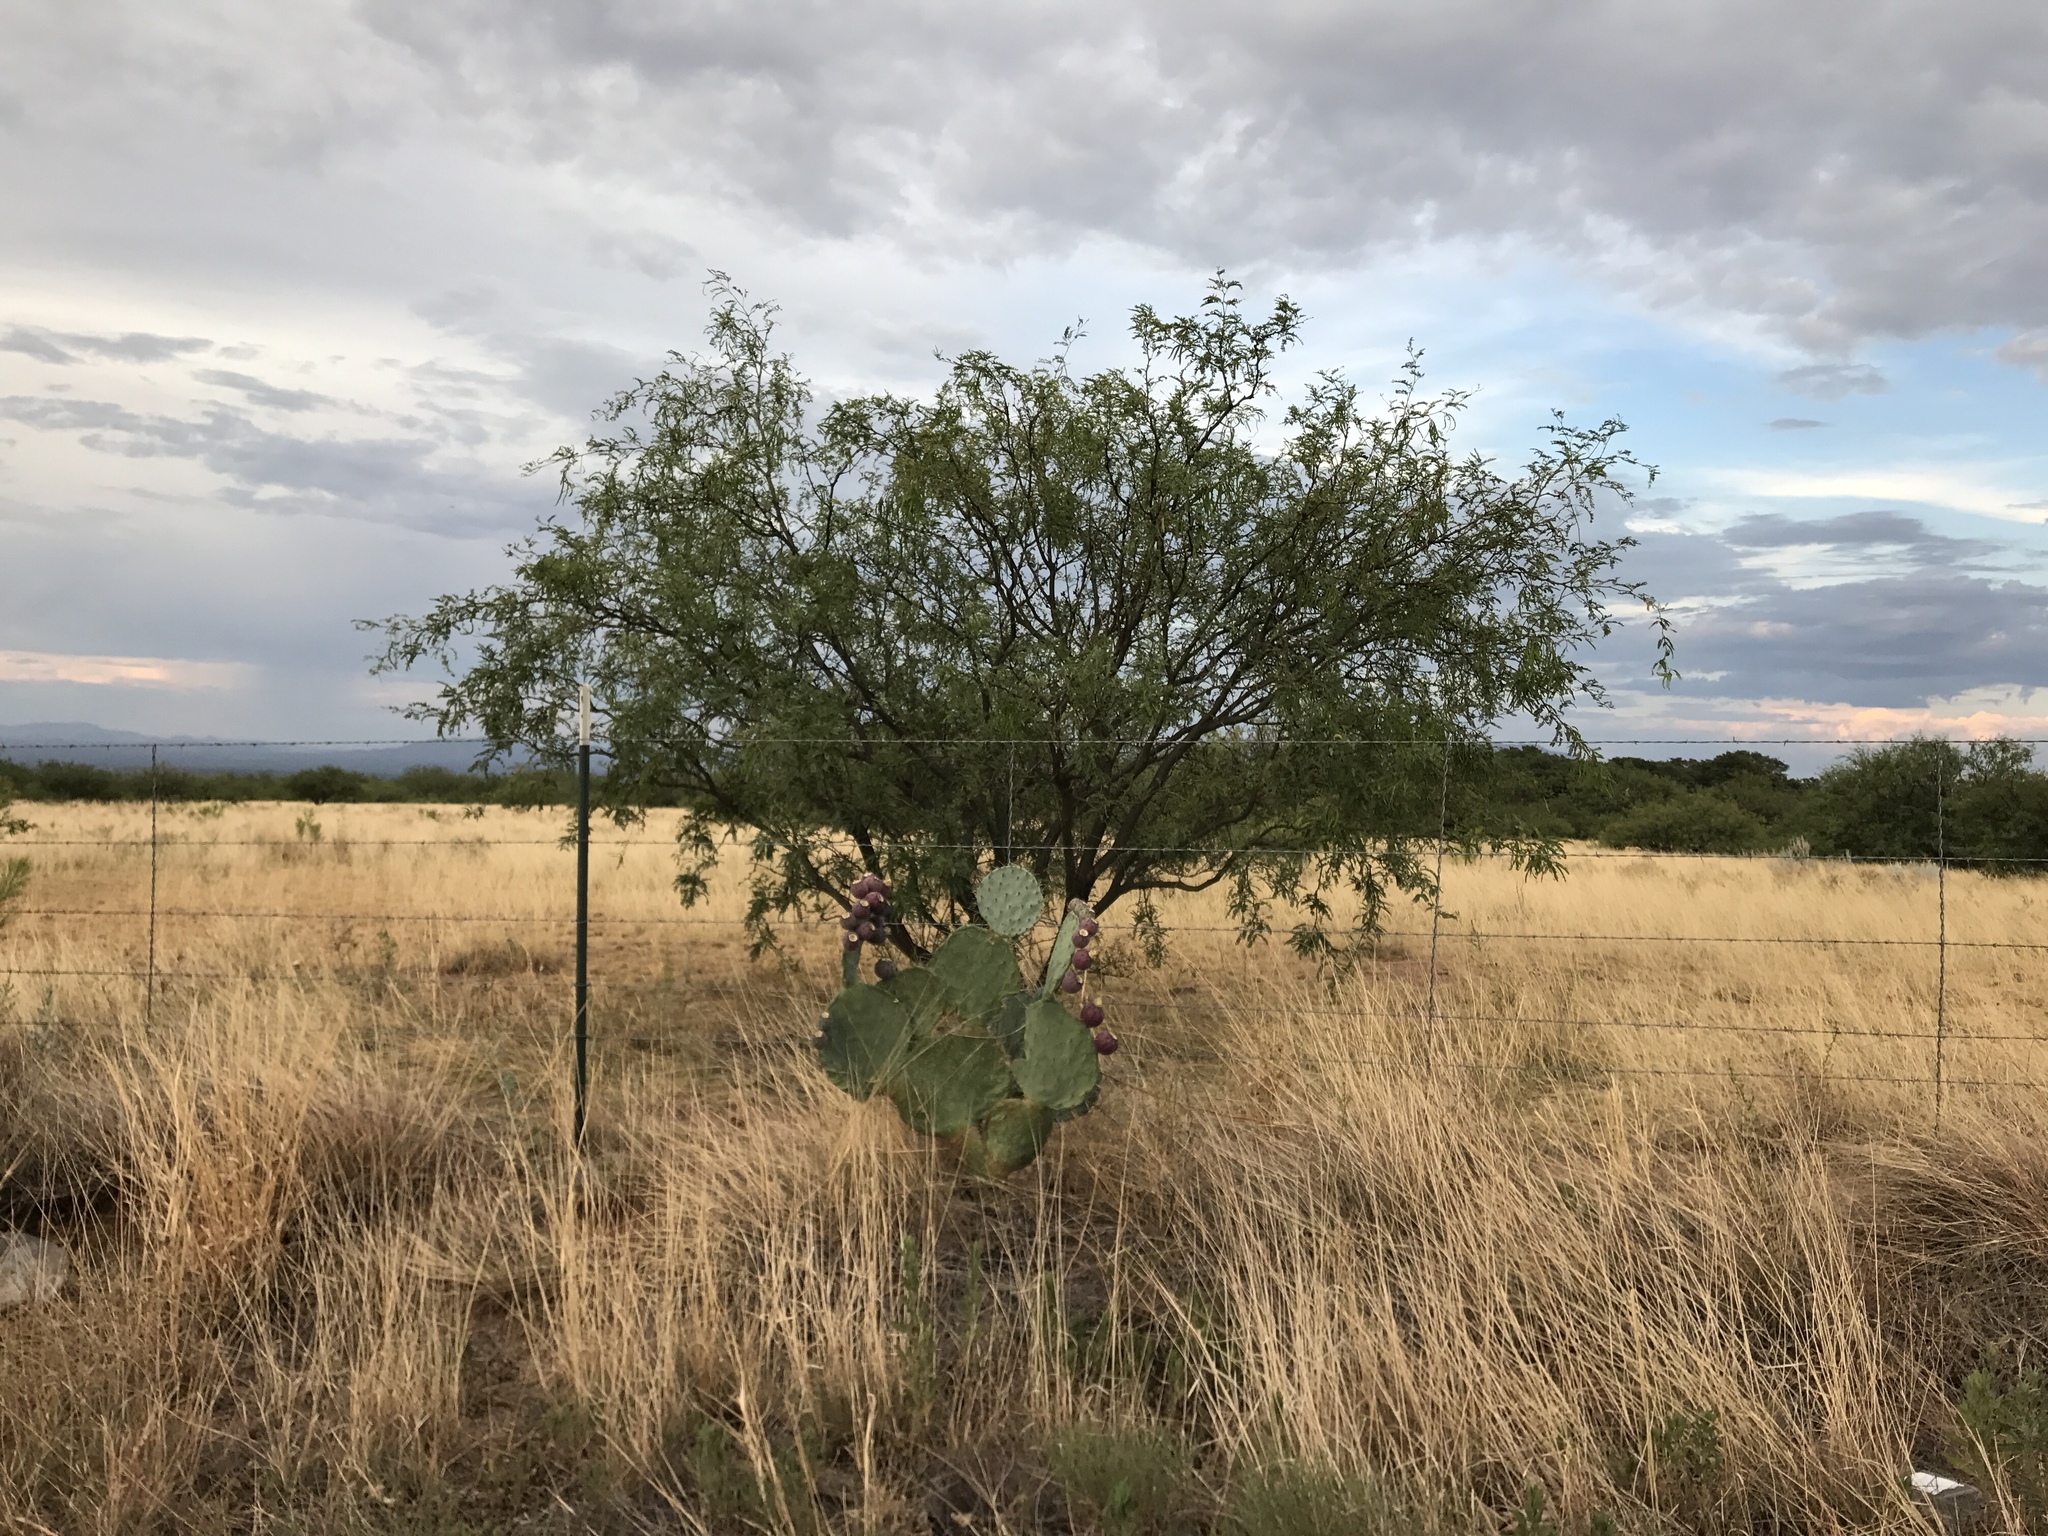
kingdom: Plantae
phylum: Tracheophyta
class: Magnoliopsida
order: Caryophyllales
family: Cactaceae
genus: Opuntia
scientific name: Opuntia robusta
